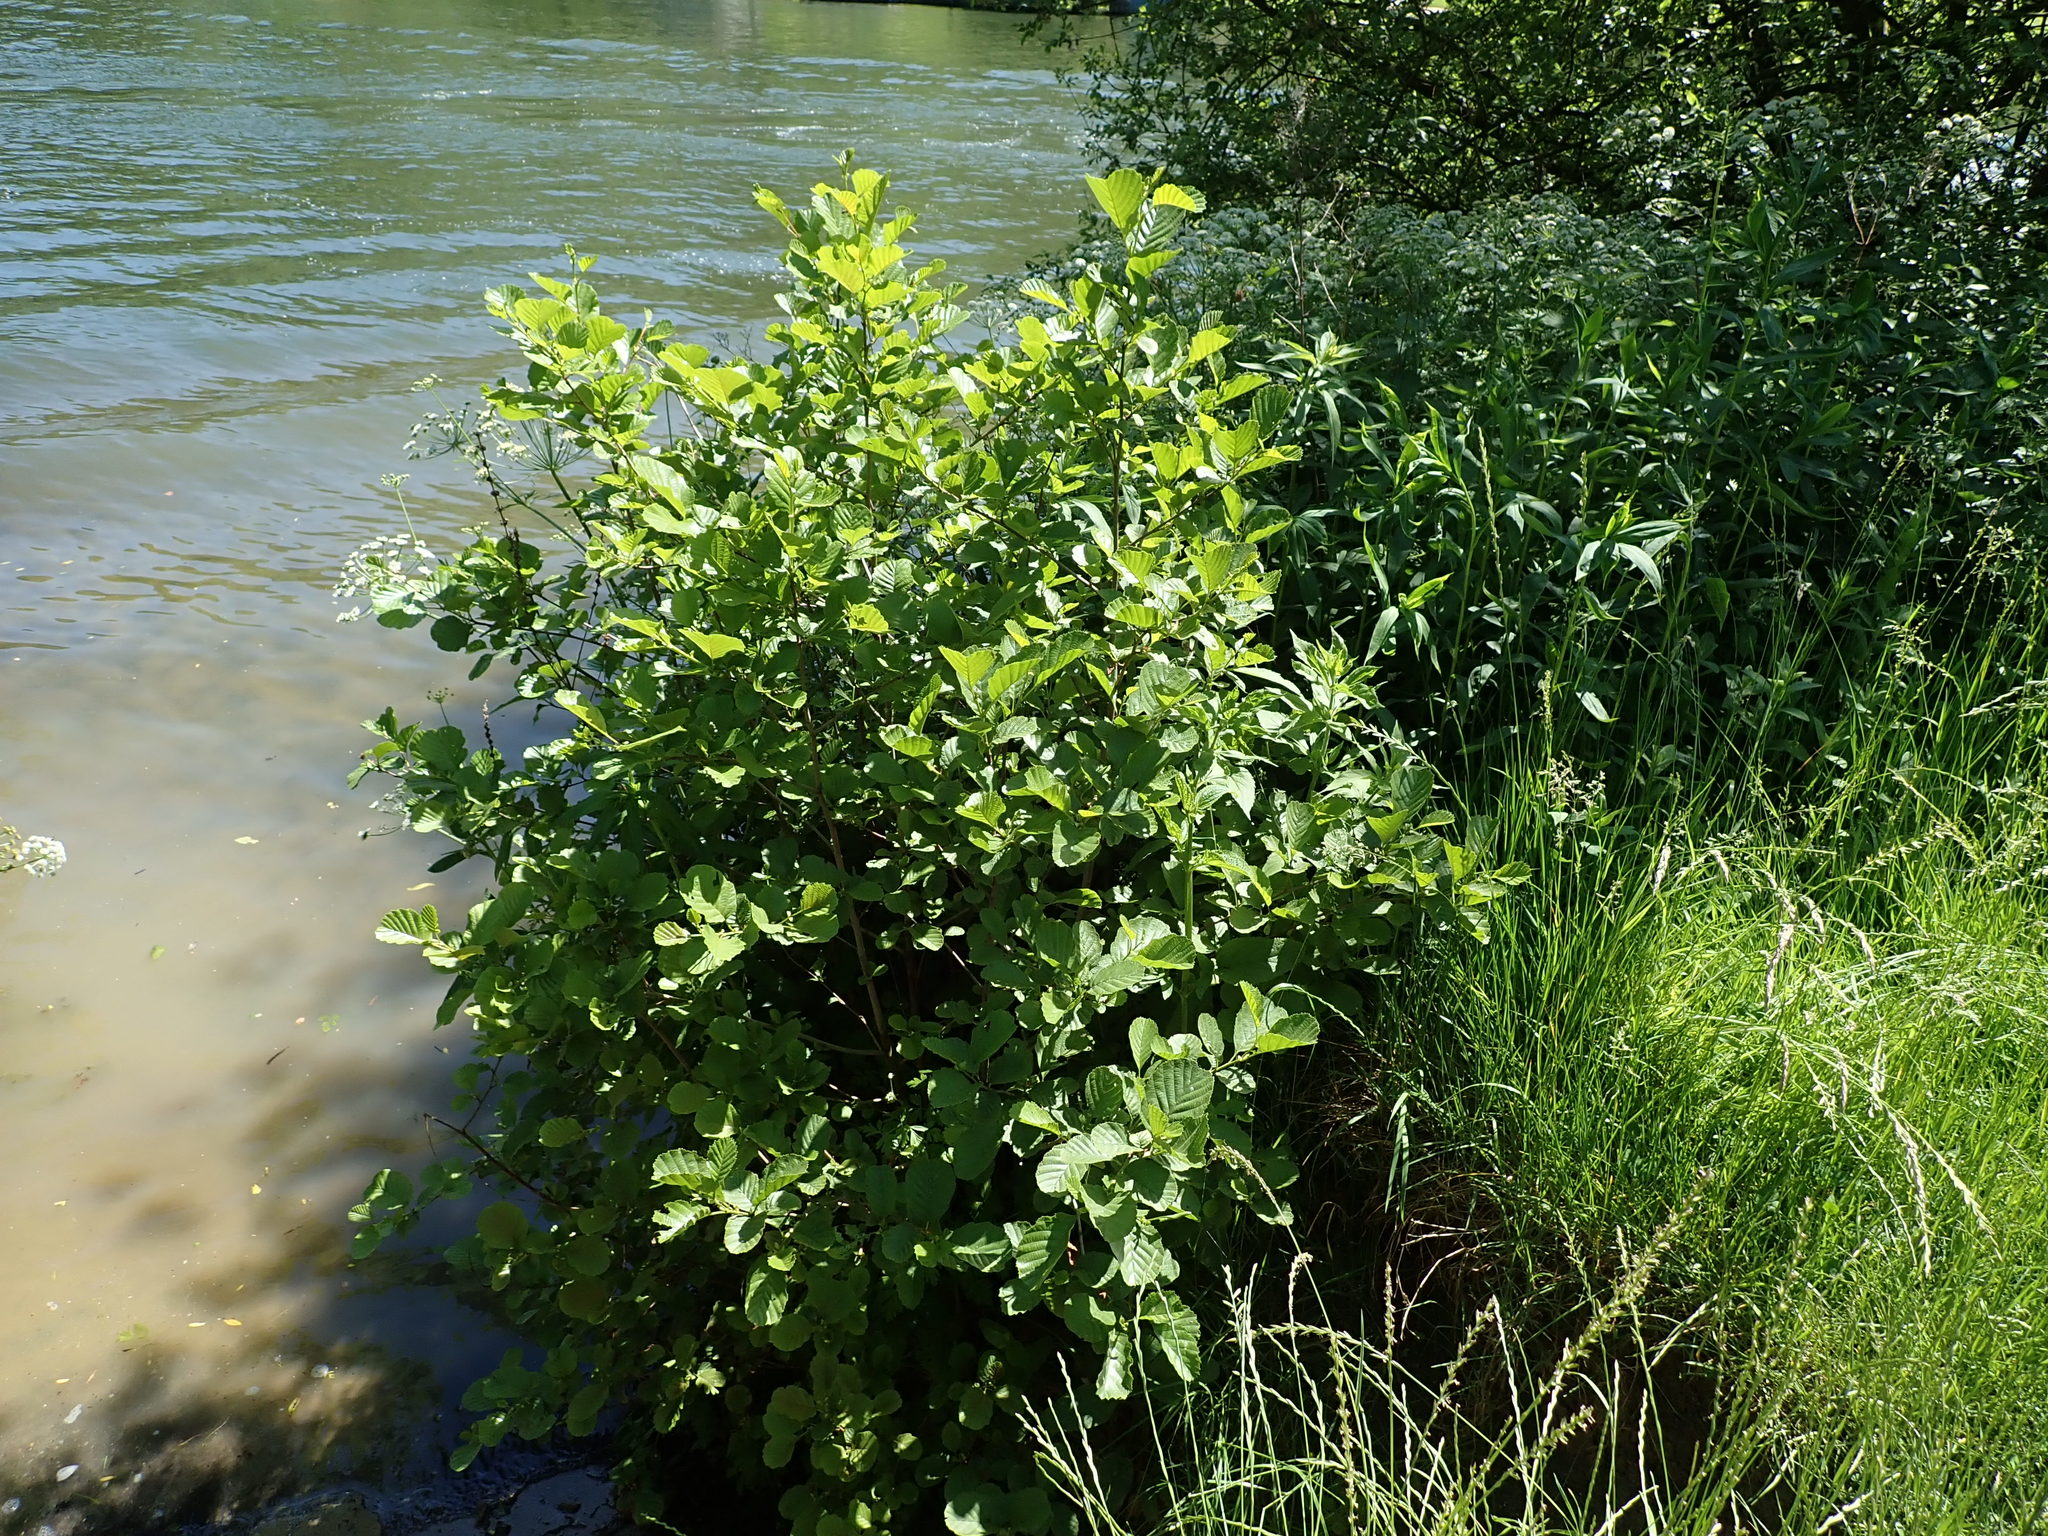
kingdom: Plantae
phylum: Tracheophyta
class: Magnoliopsida
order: Fagales
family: Betulaceae
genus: Alnus
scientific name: Alnus glutinosa
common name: Black alder
